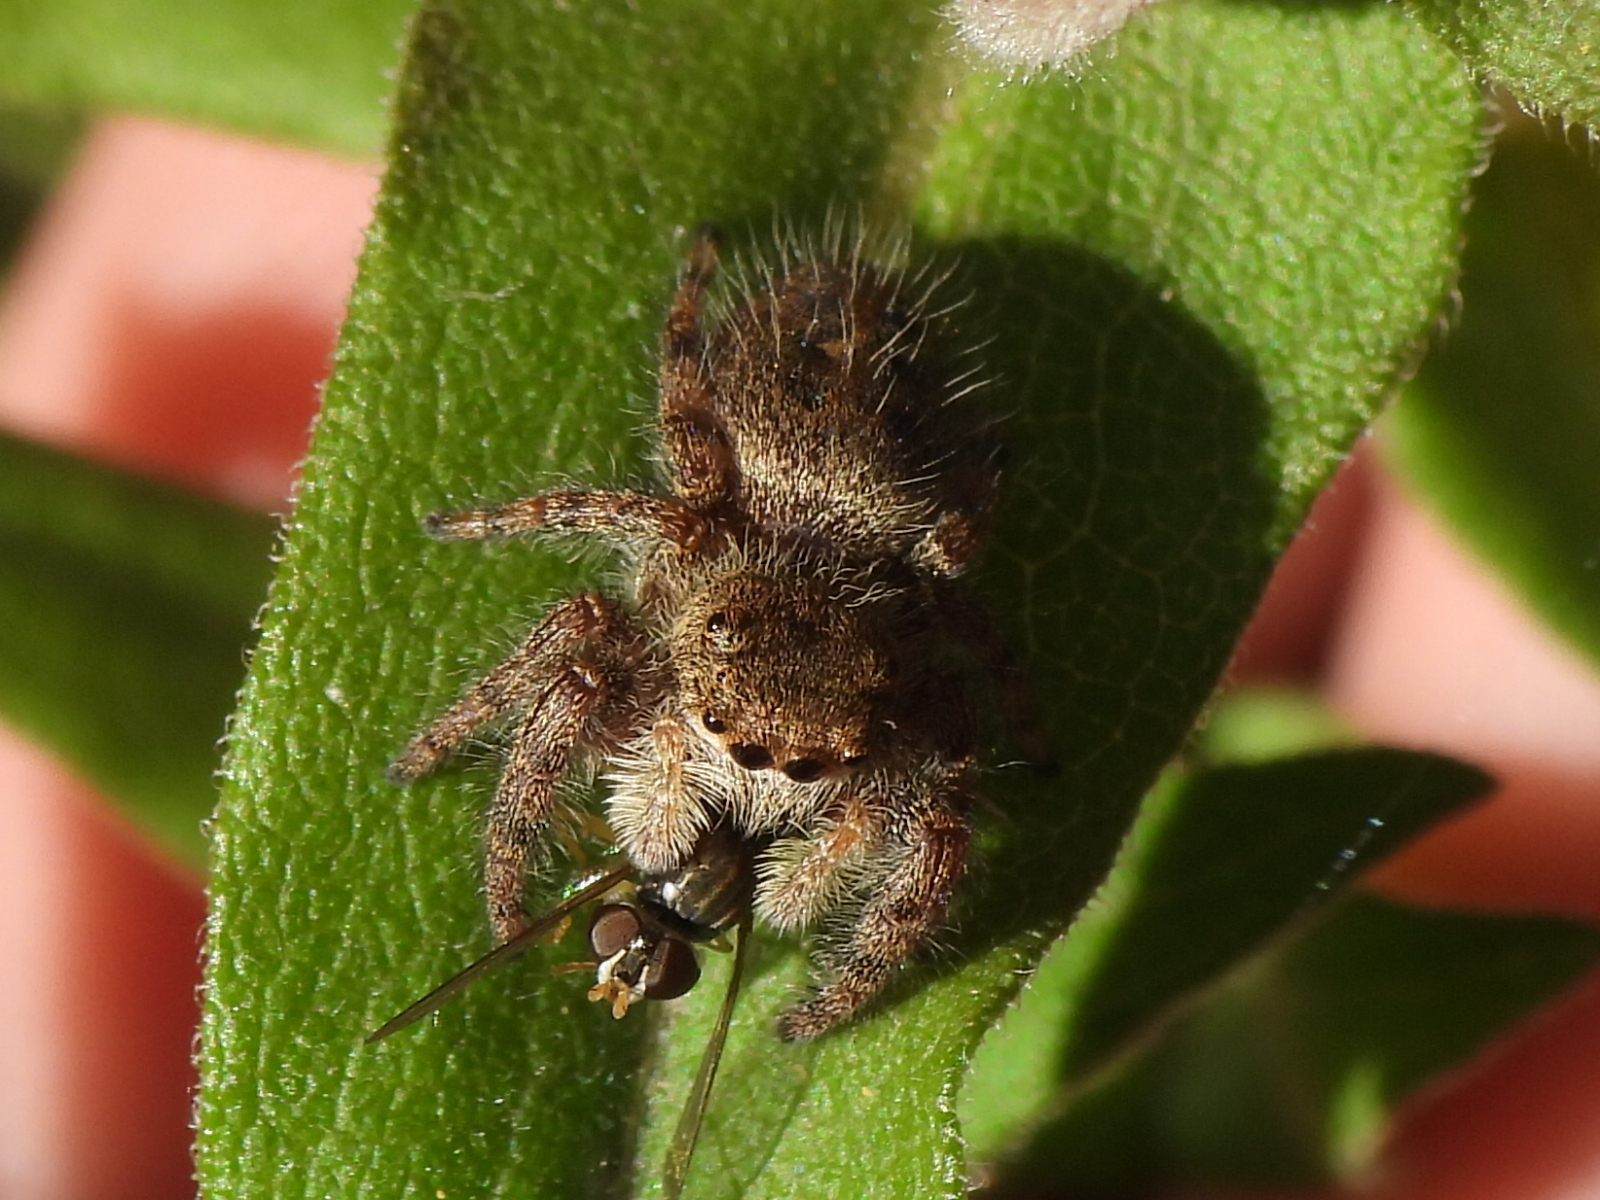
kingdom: Animalia
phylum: Arthropoda
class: Arachnida
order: Araneae
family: Salticidae
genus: Phidippus
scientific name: Phidippus princeps
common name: Grayish jumping spider
